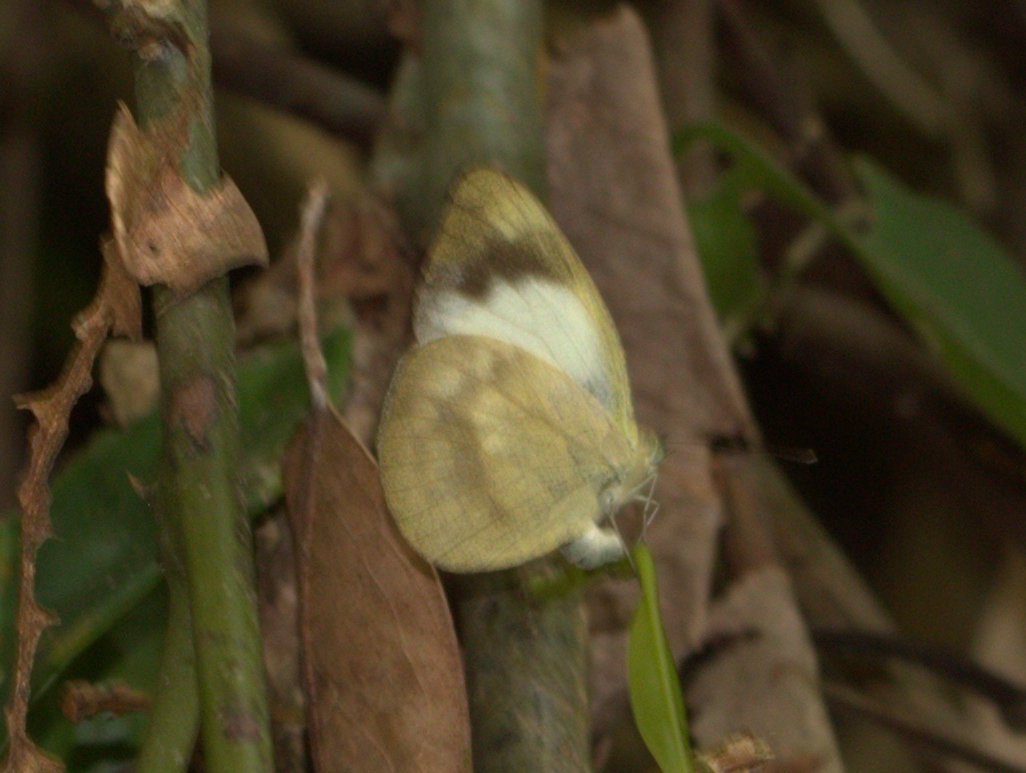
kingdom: Animalia
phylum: Arthropoda
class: Insecta
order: Lepidoptera
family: Pieridae
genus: Appias
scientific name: Appias indra
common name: Plain puffin
